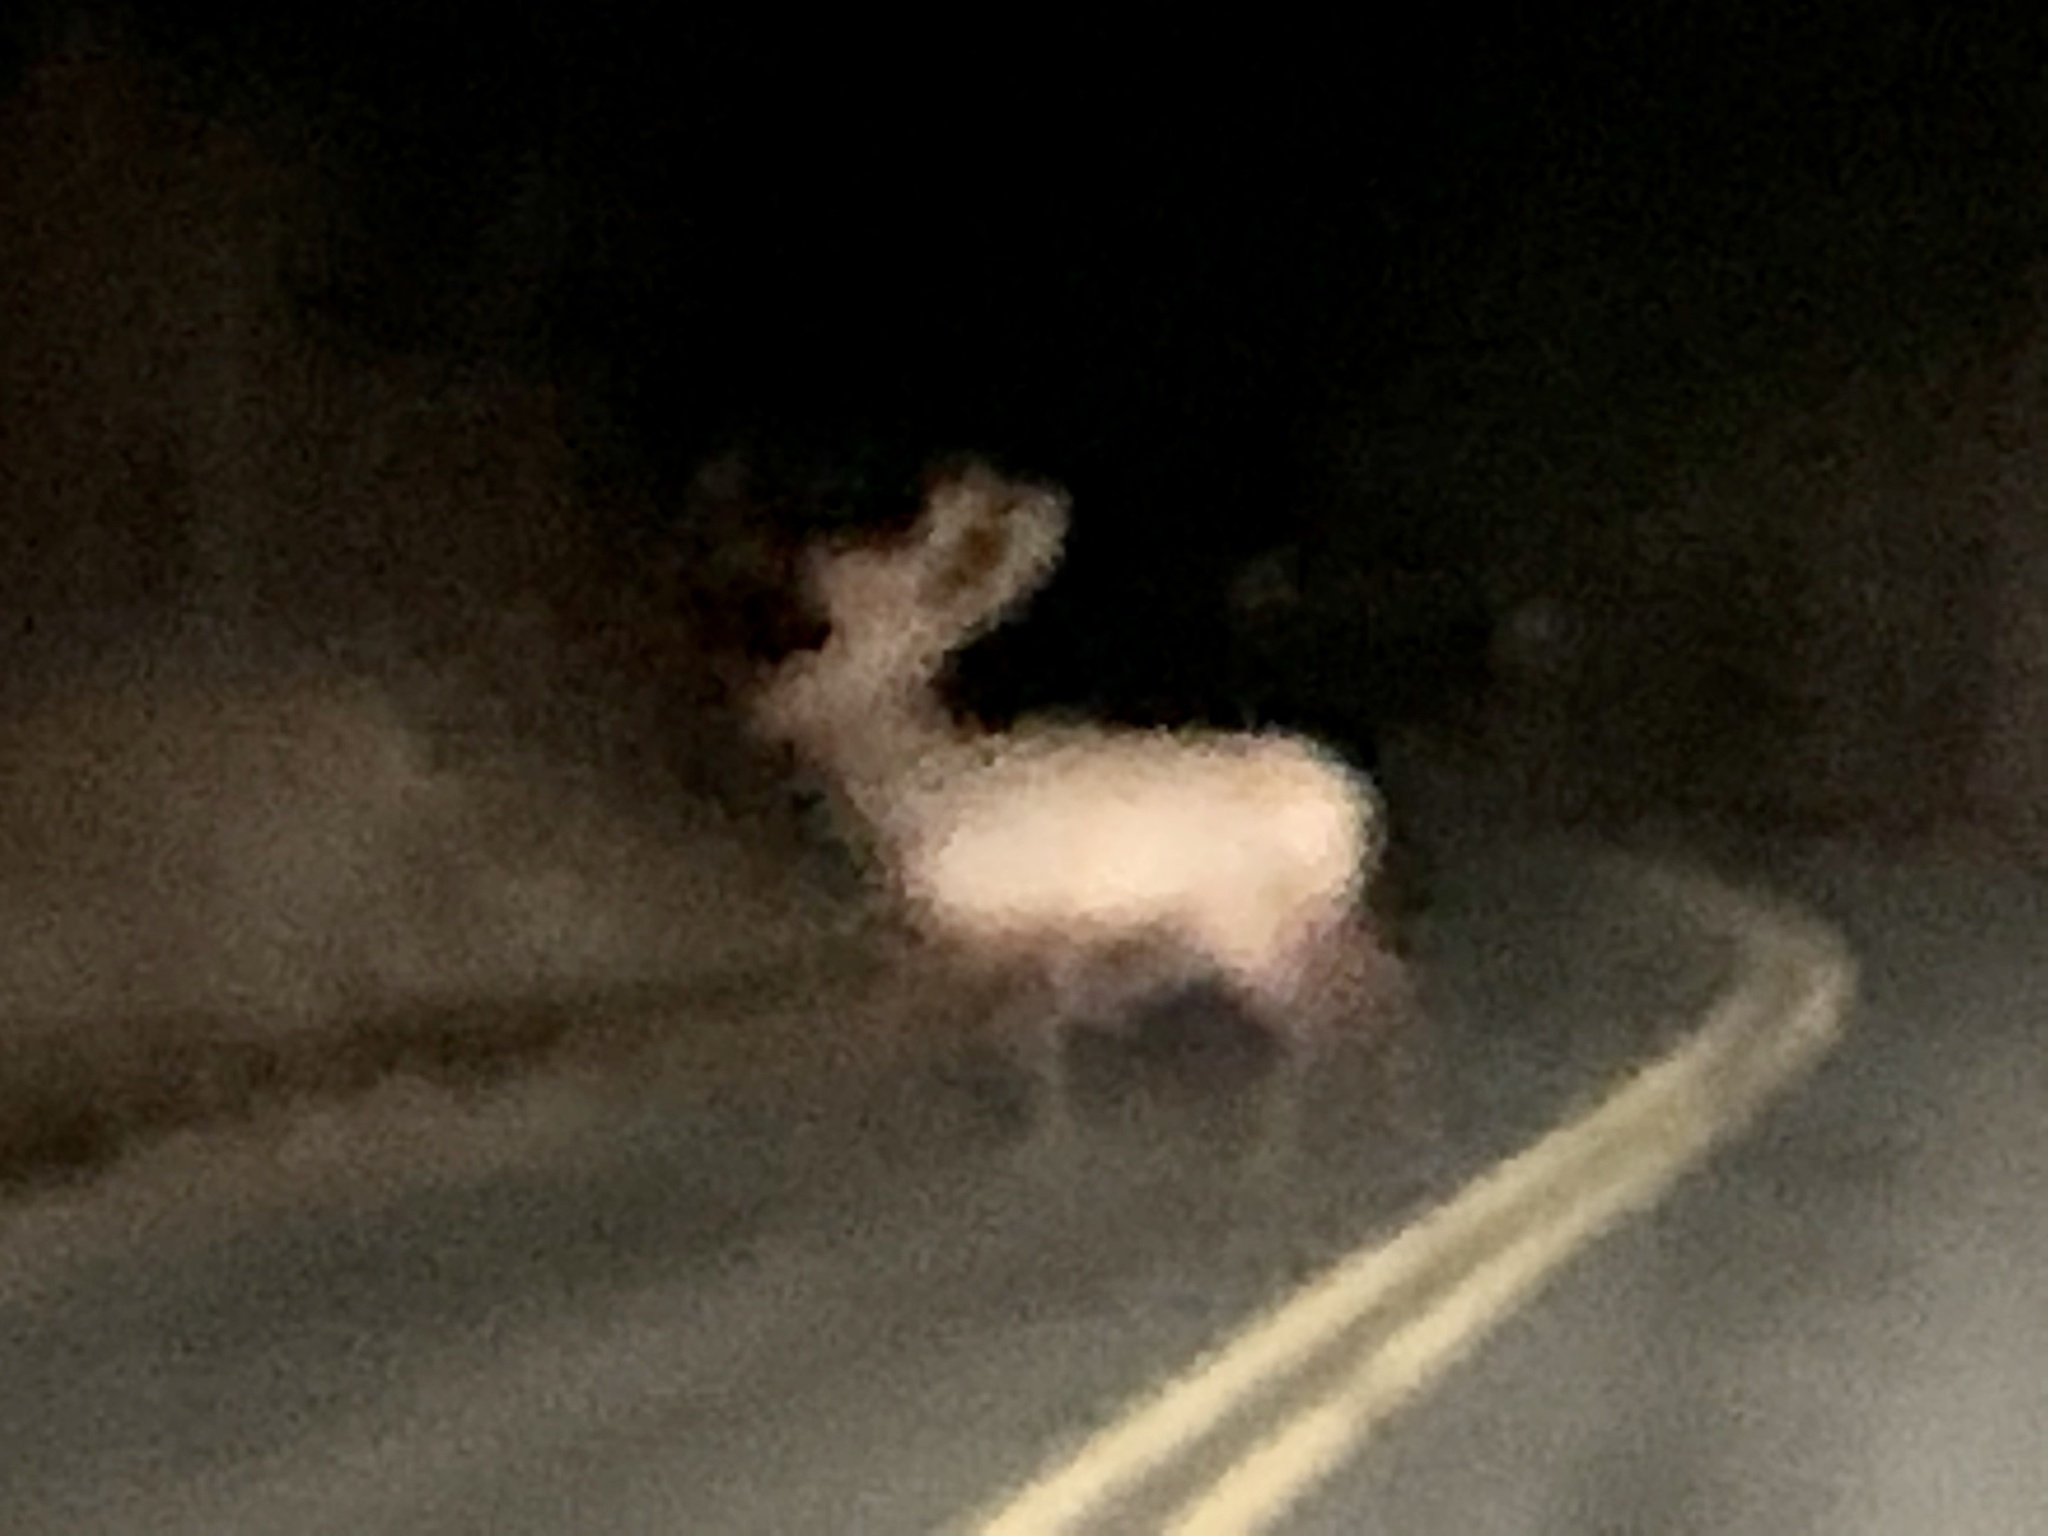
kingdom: Animalia
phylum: Chordata
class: Mammalia
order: Artiodactyla
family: Cervidae
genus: Cervus
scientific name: Cervus elaphus
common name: Red deer
